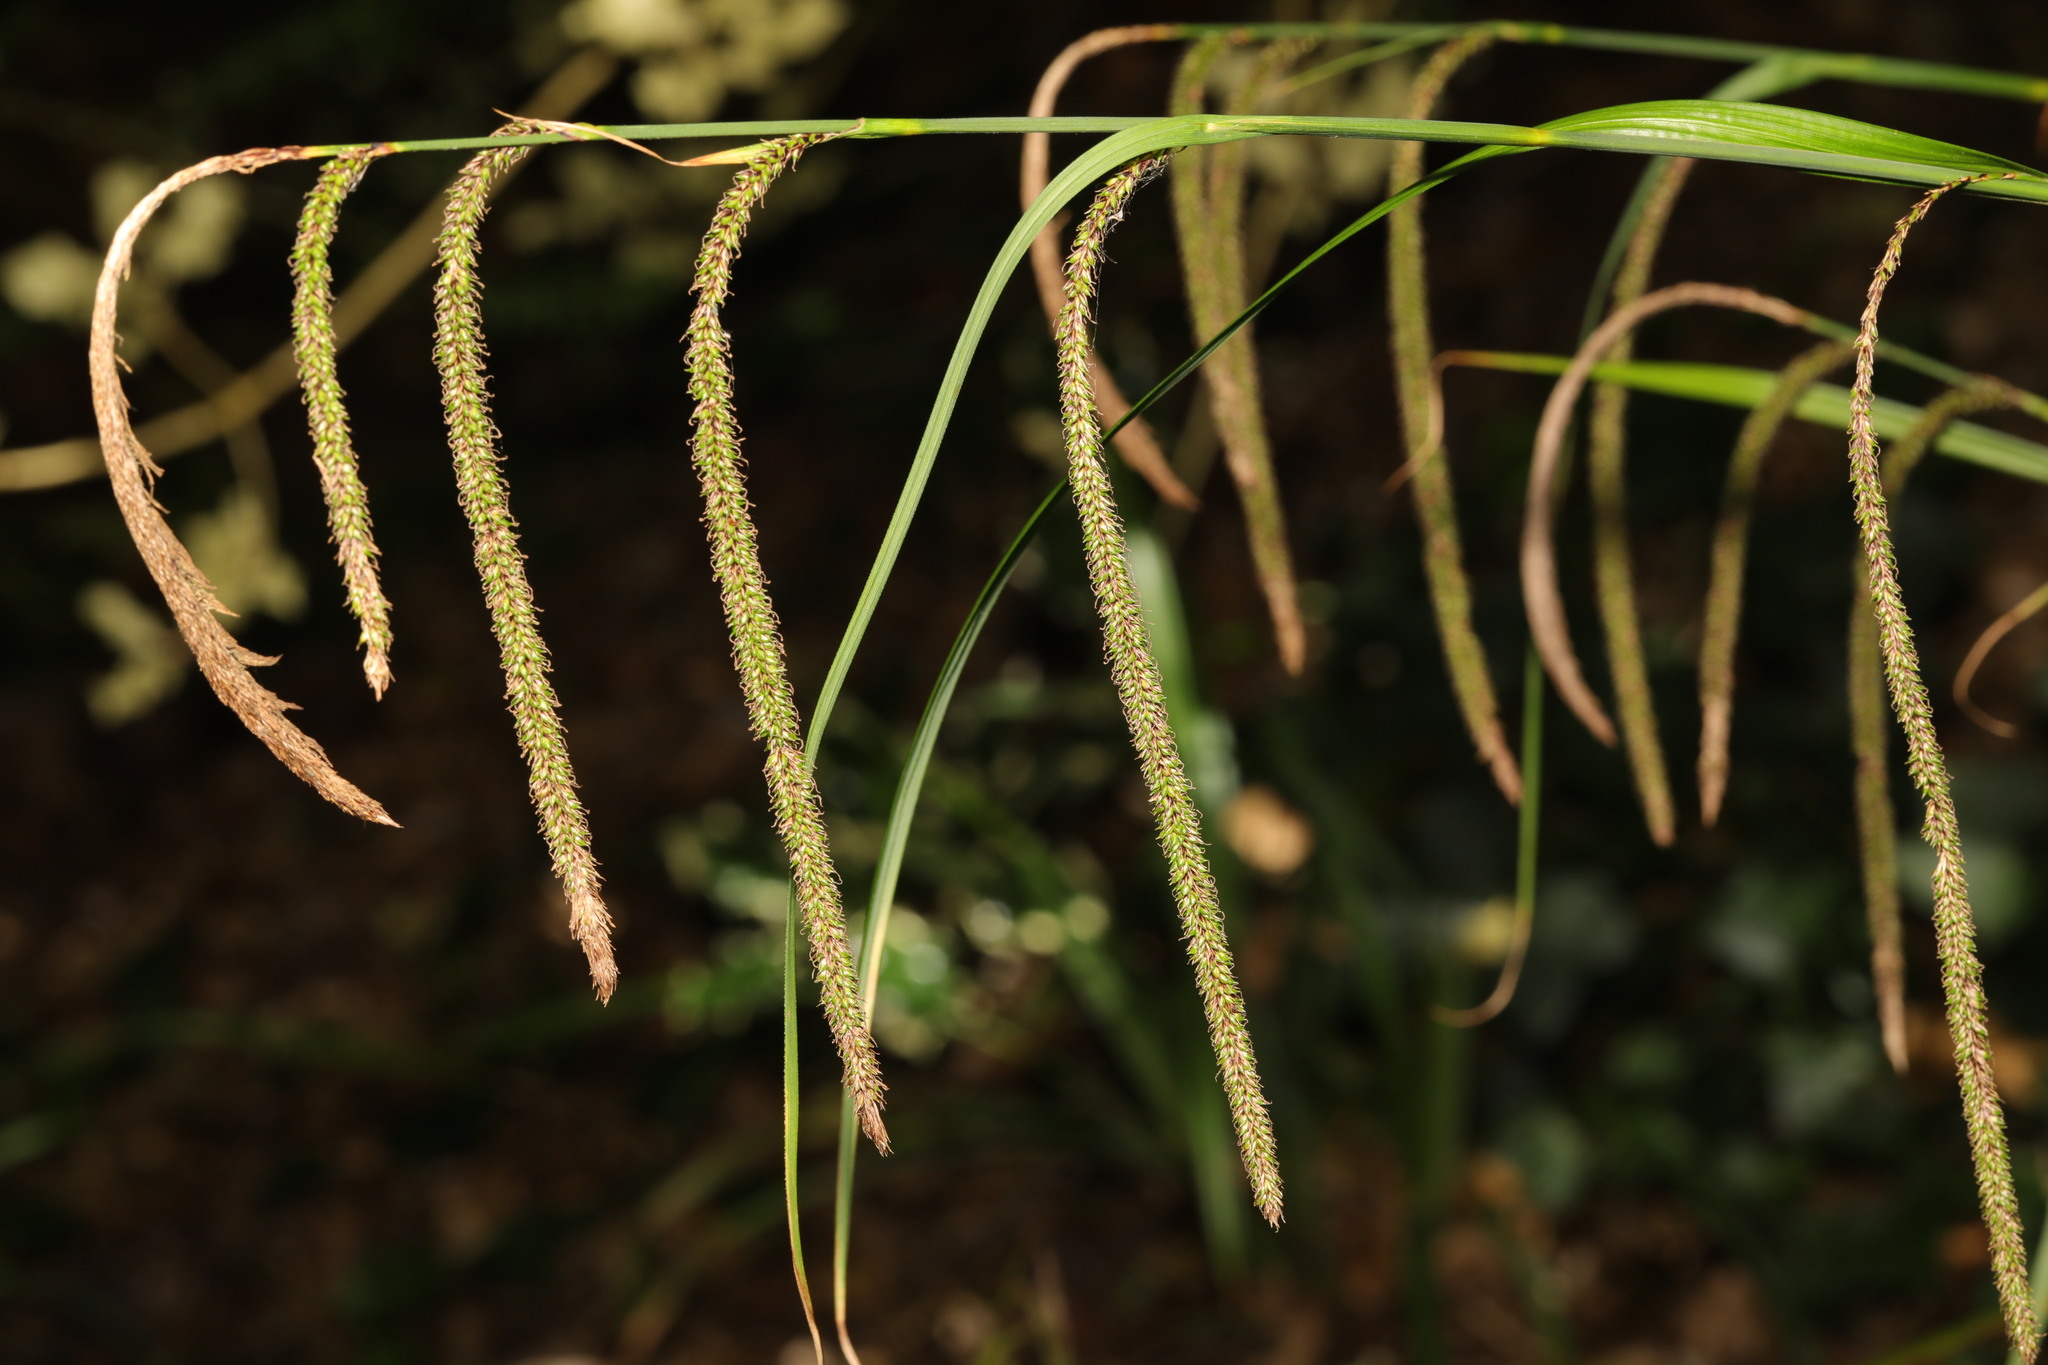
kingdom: Plantae
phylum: Tracheophyta
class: Liliopsida
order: Poales
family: Cyperaceae
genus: Carex
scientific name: Carex pendula
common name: Pendulous sedge
